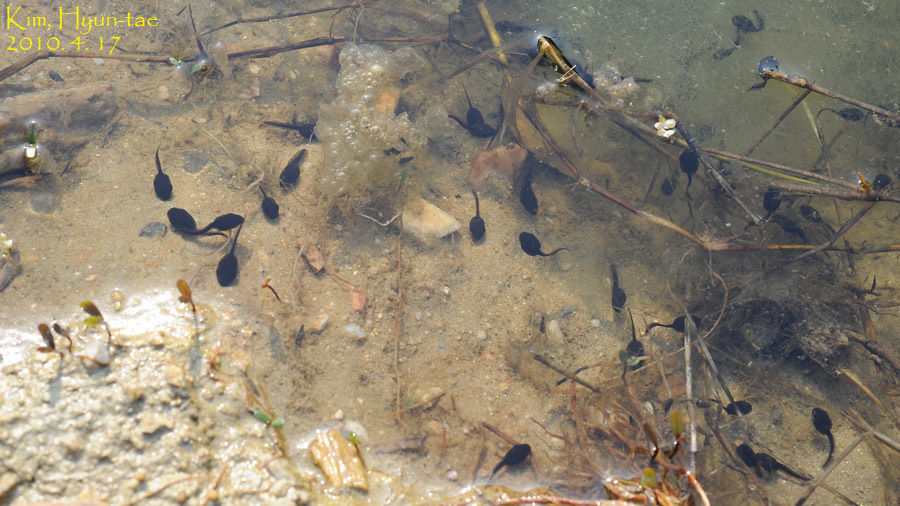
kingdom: Animalia
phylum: Chordata
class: Amphibia
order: Anura
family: Bufonidae
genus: Bufo
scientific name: Bufo gargarizans
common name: Asiatic toad
